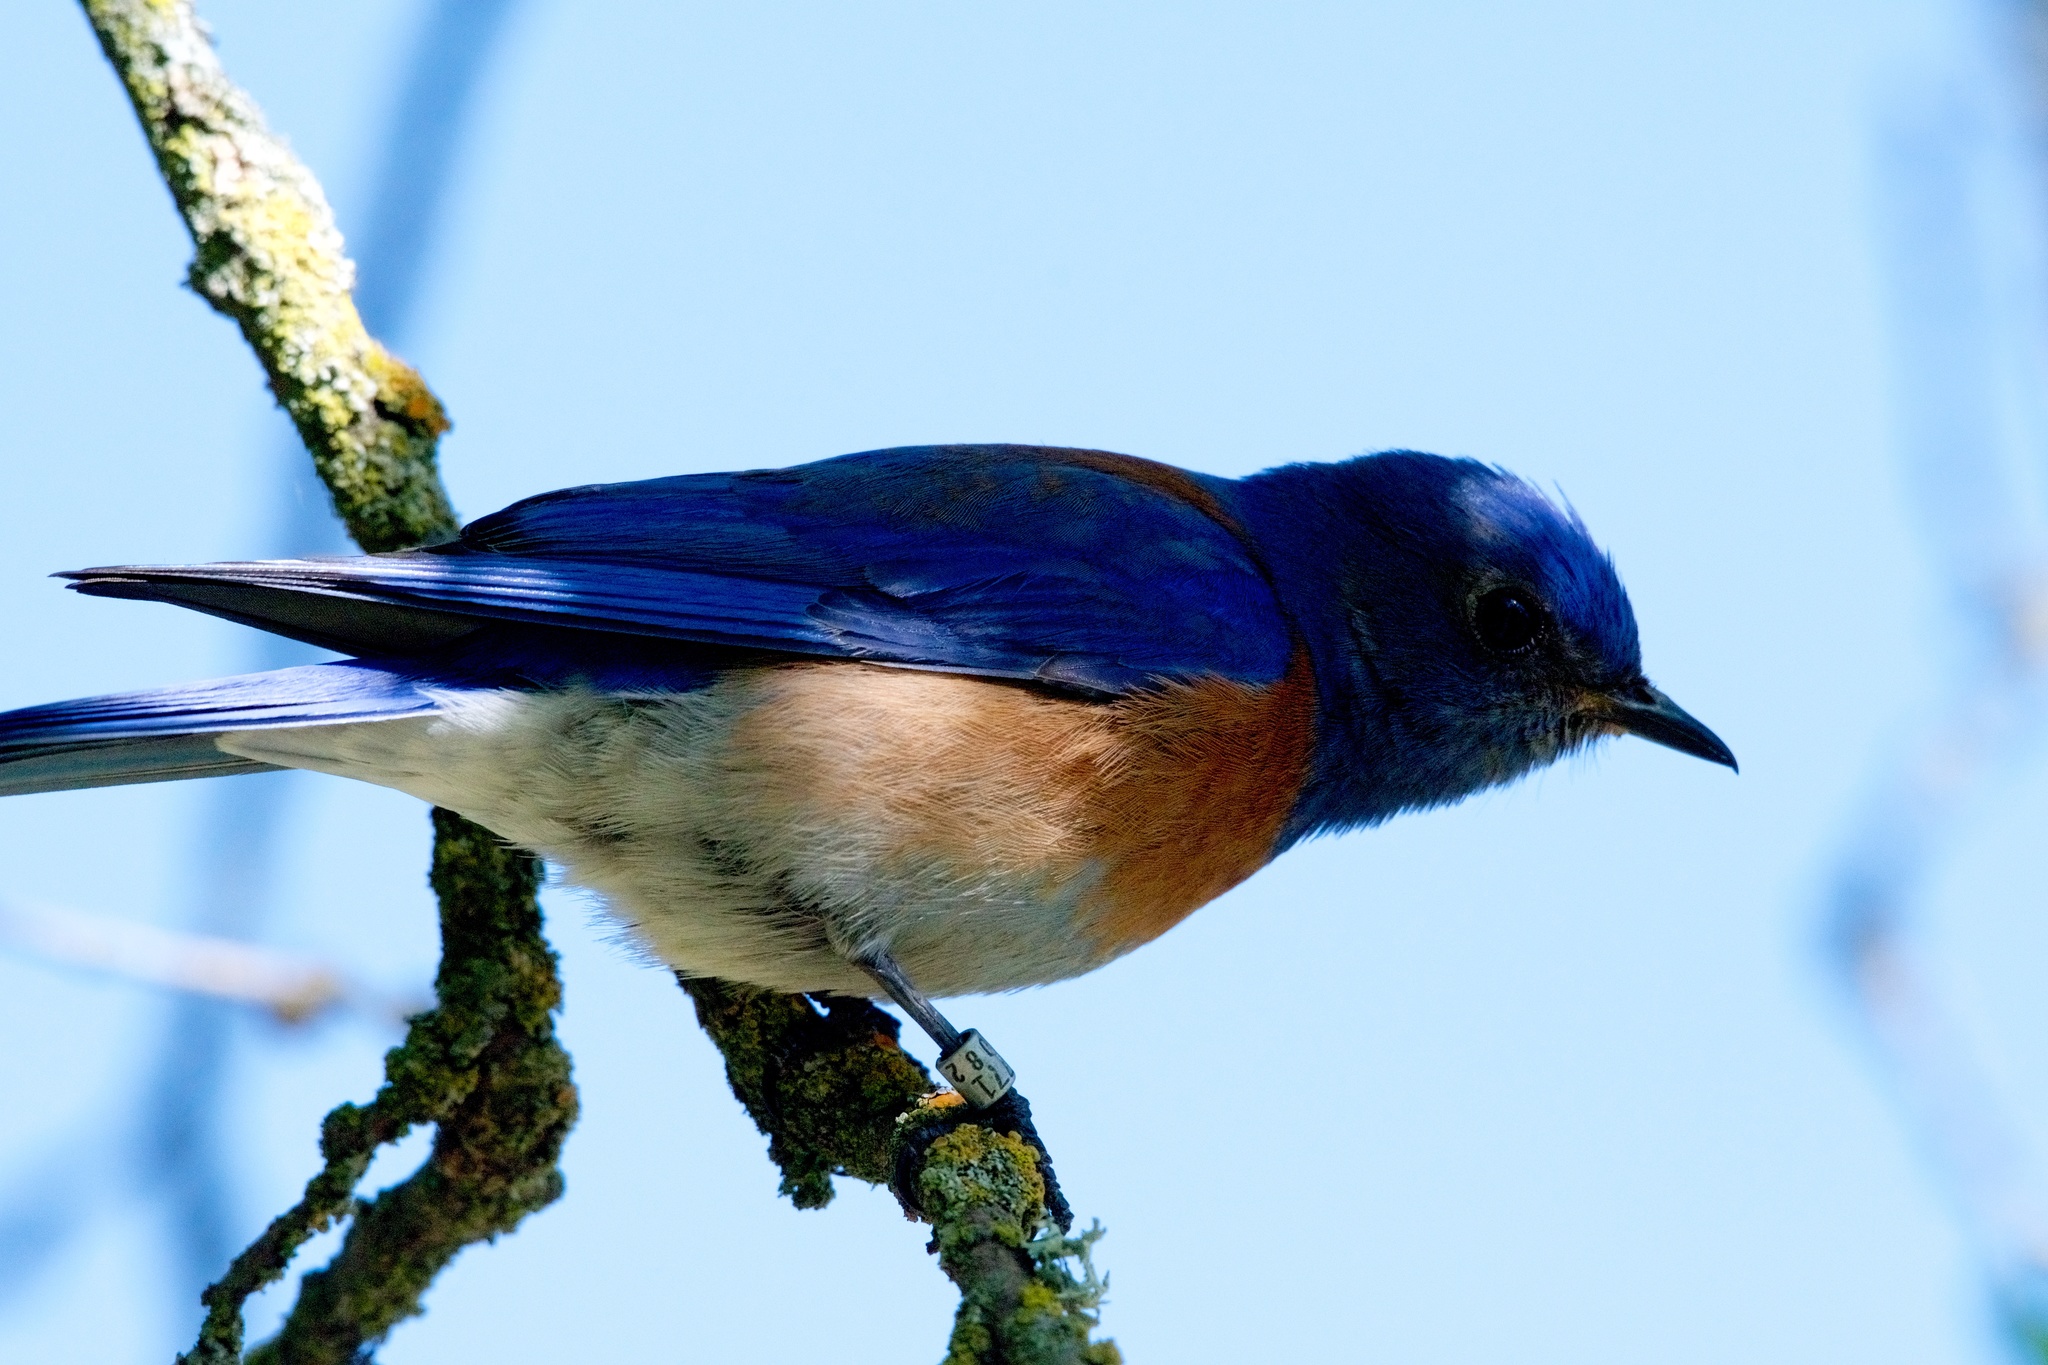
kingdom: Animalia
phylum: Chordata
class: Aves
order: Passeriformes
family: Turdidae
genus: Sialia
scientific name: Sialia mexicana
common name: Western bluebird
